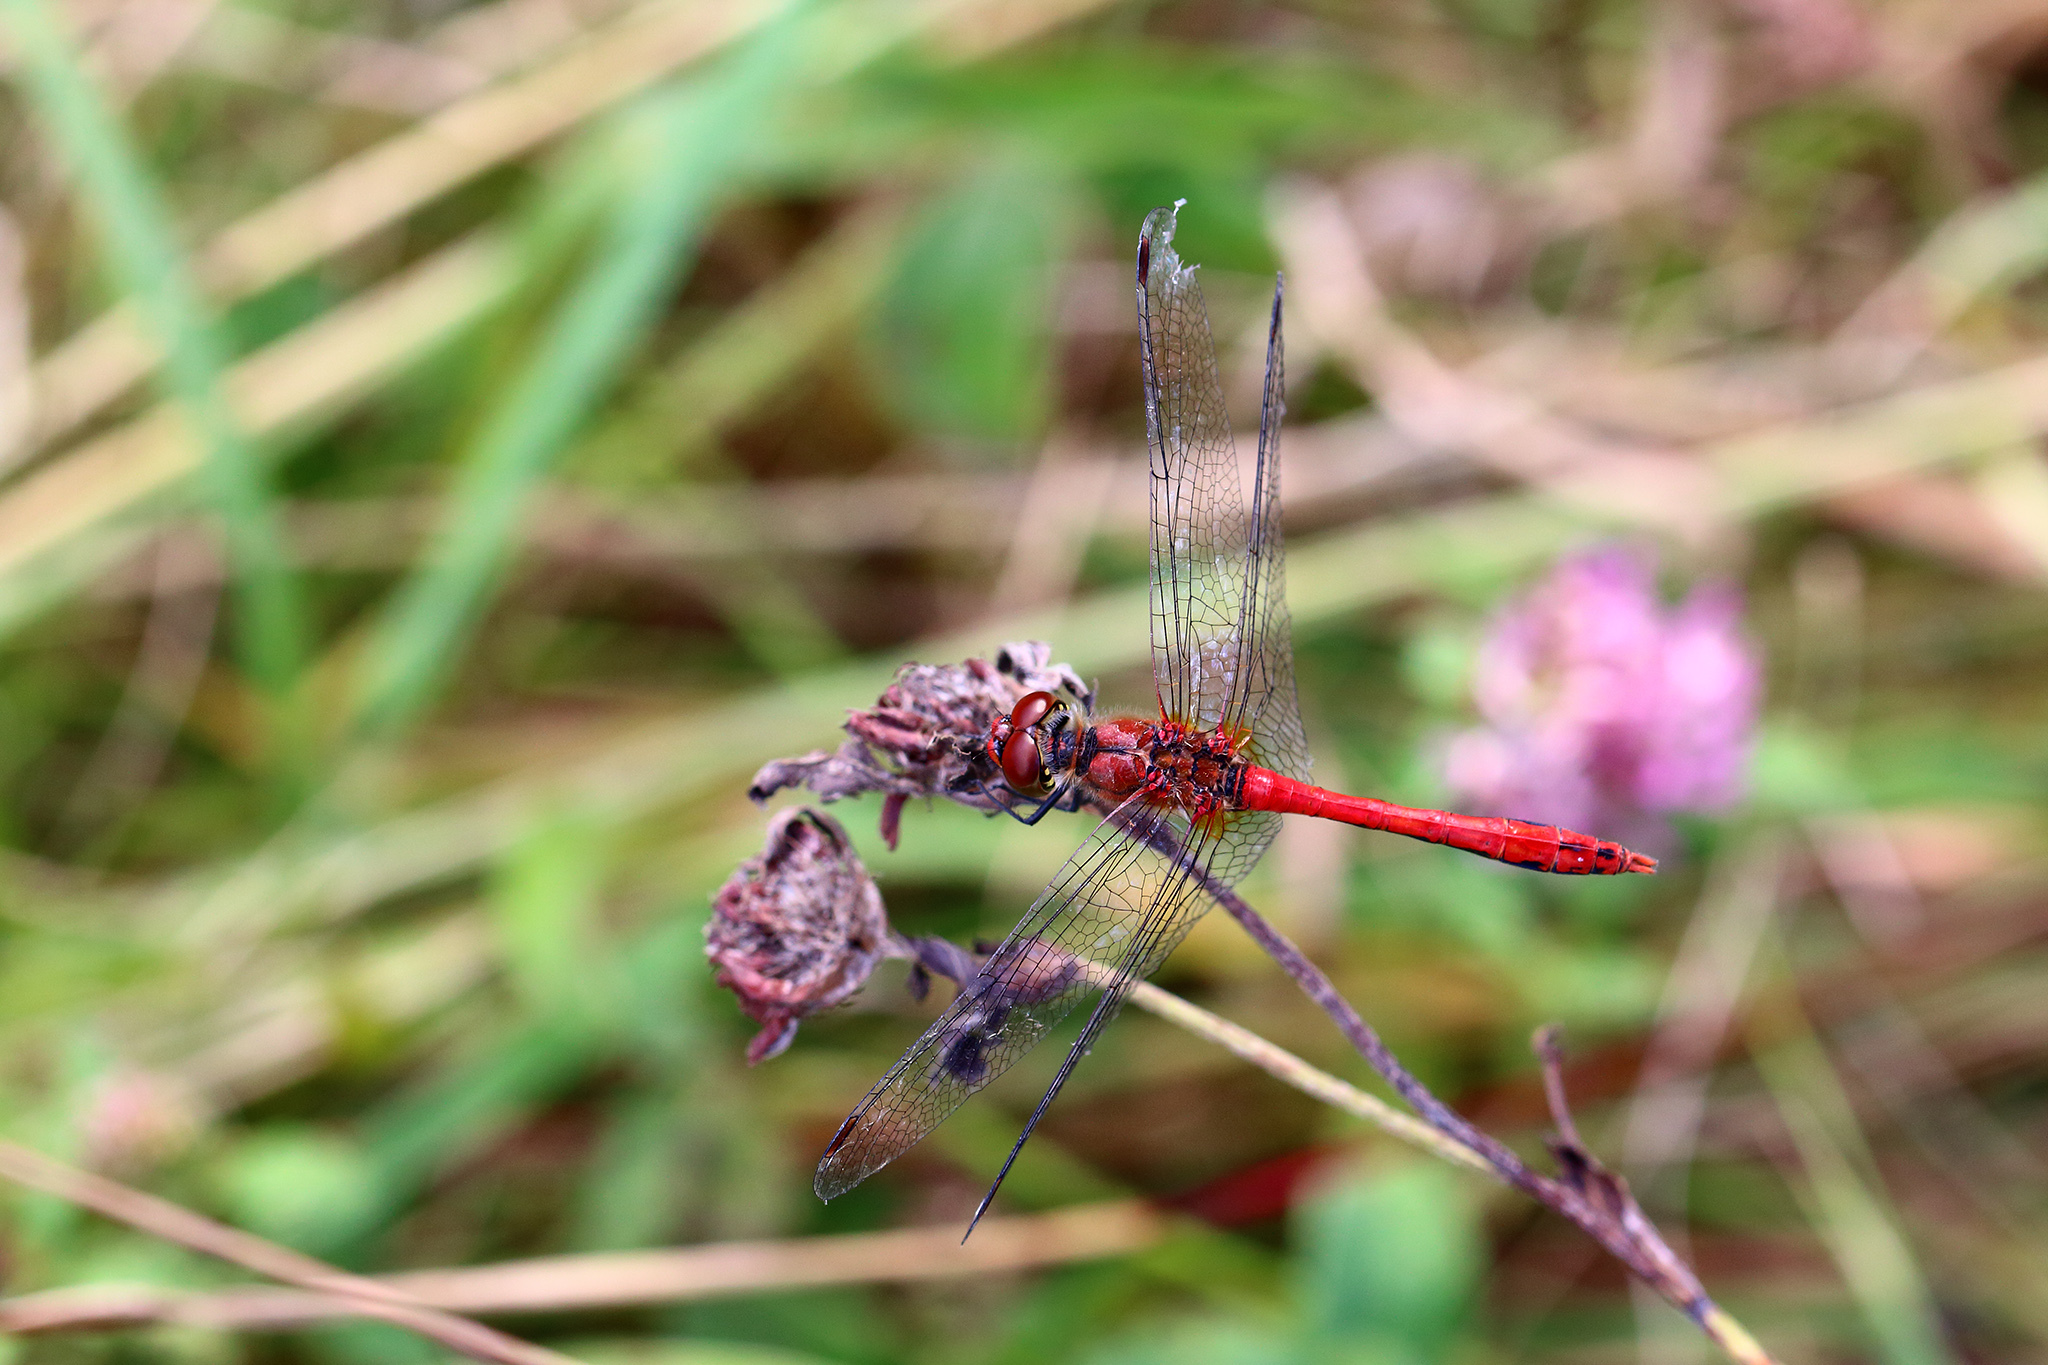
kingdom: Animalia
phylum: Arthropoda
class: Insecta
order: Odonata
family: Libellulidae
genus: Sympetrum
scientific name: Sympetrum sanguineum
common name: Ruddy darter
